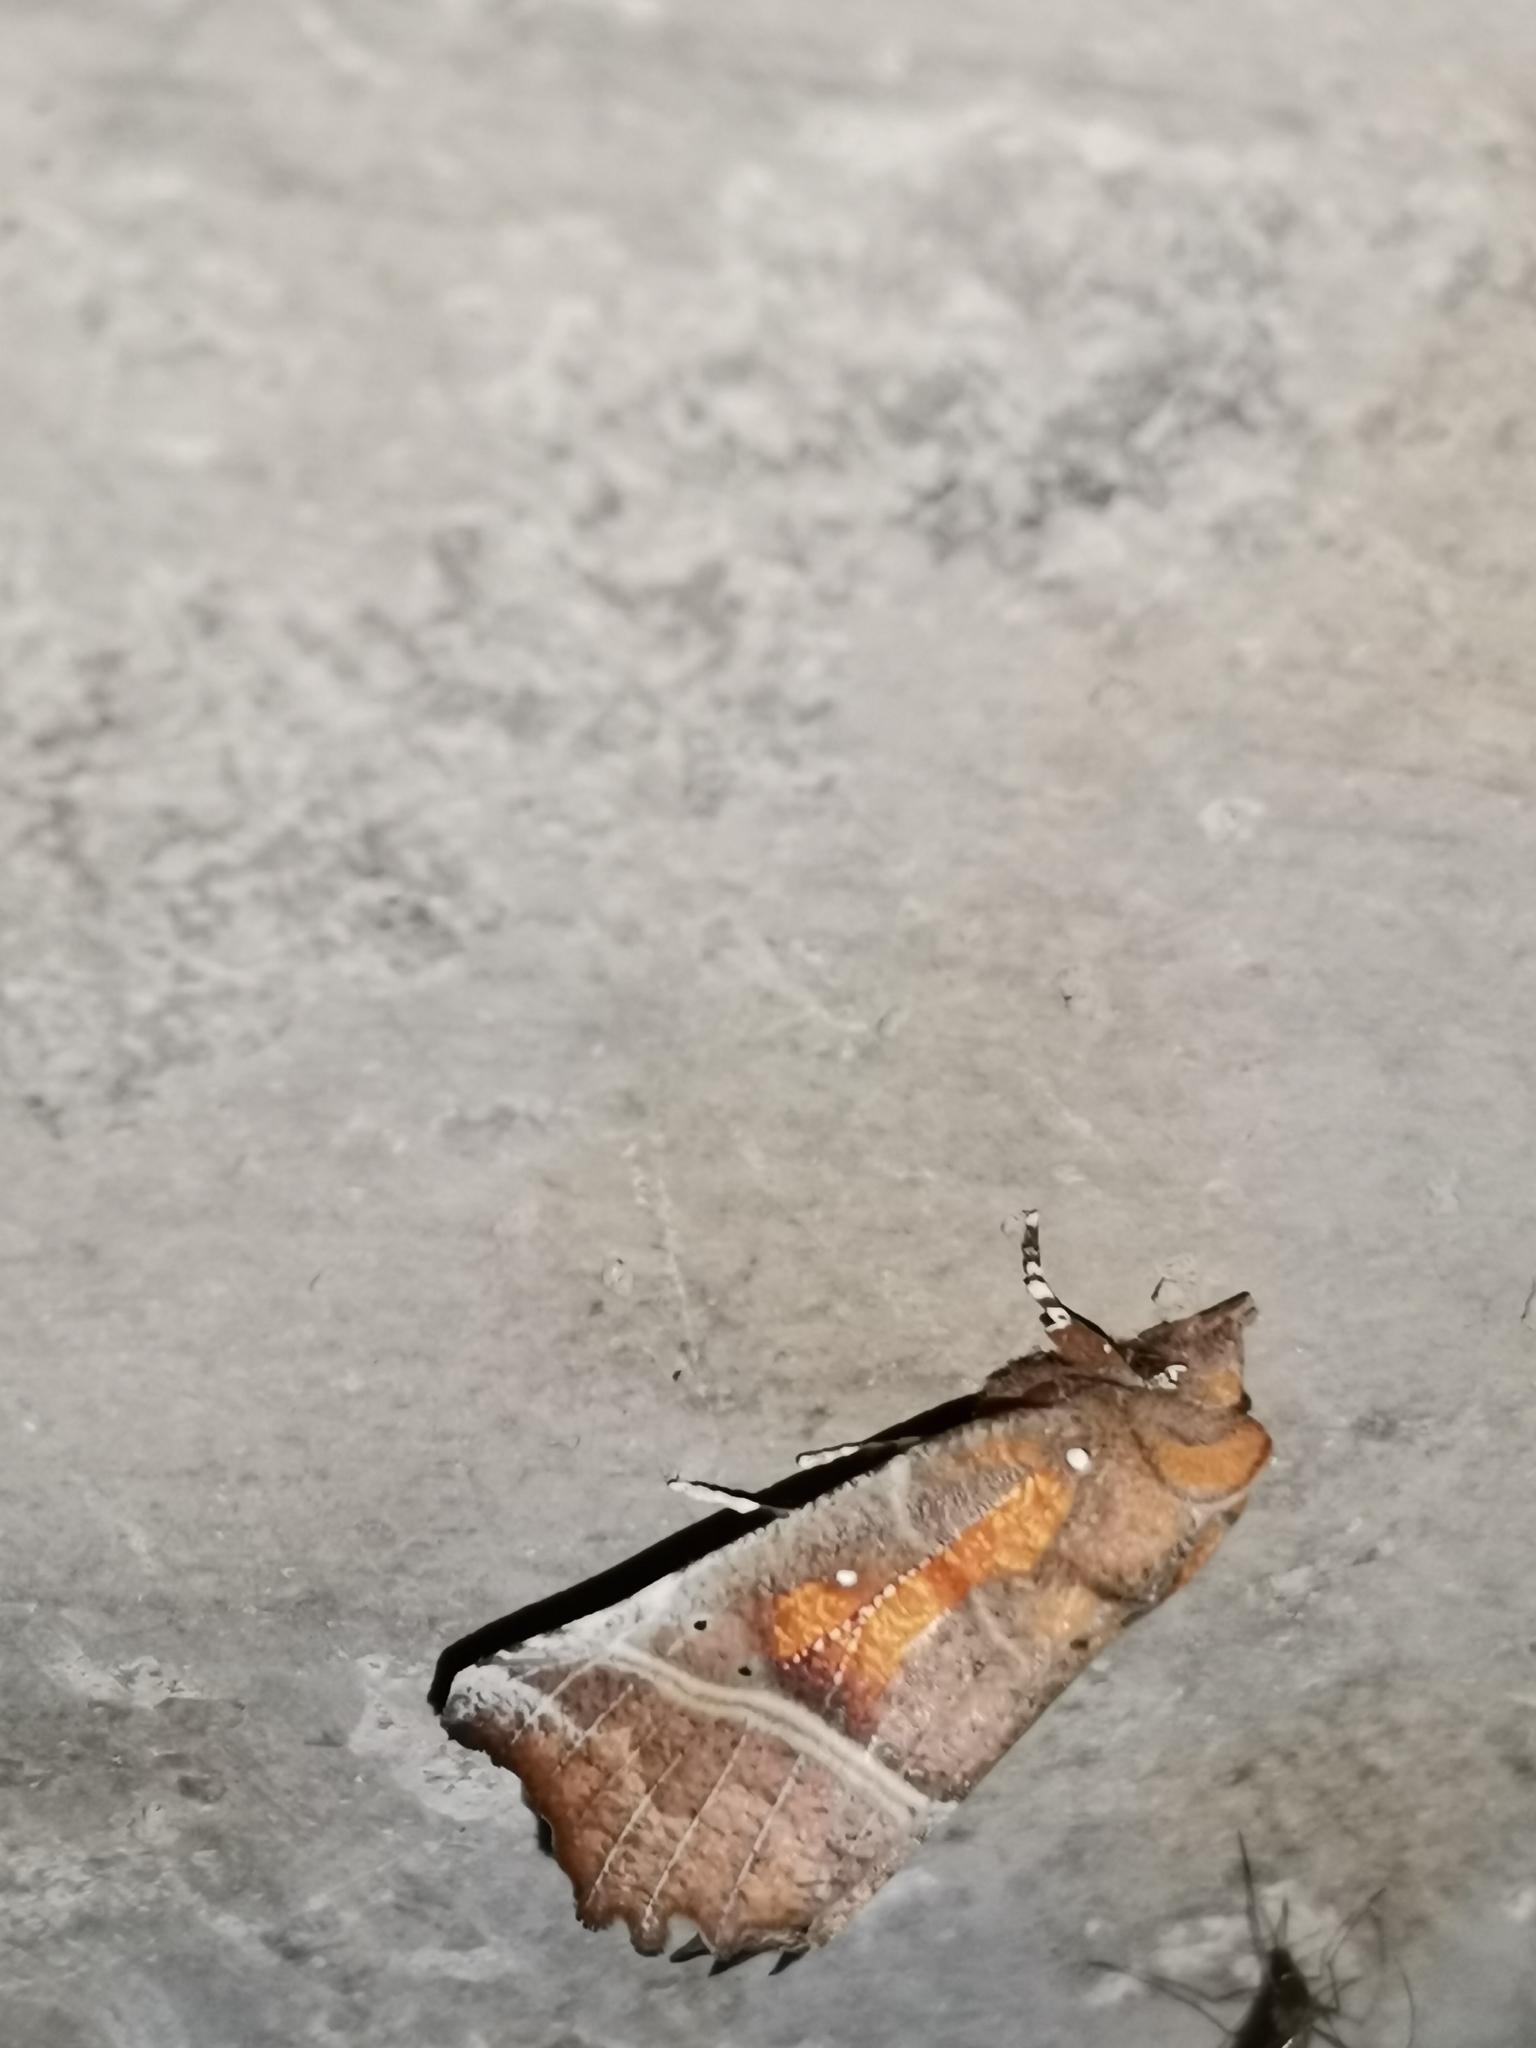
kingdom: Animalia
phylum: Arthropoda
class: Insecta
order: Lepidoptera
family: Erebidae
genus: Scoliopteryx
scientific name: Scoliopteryx libatrix
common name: Herald
